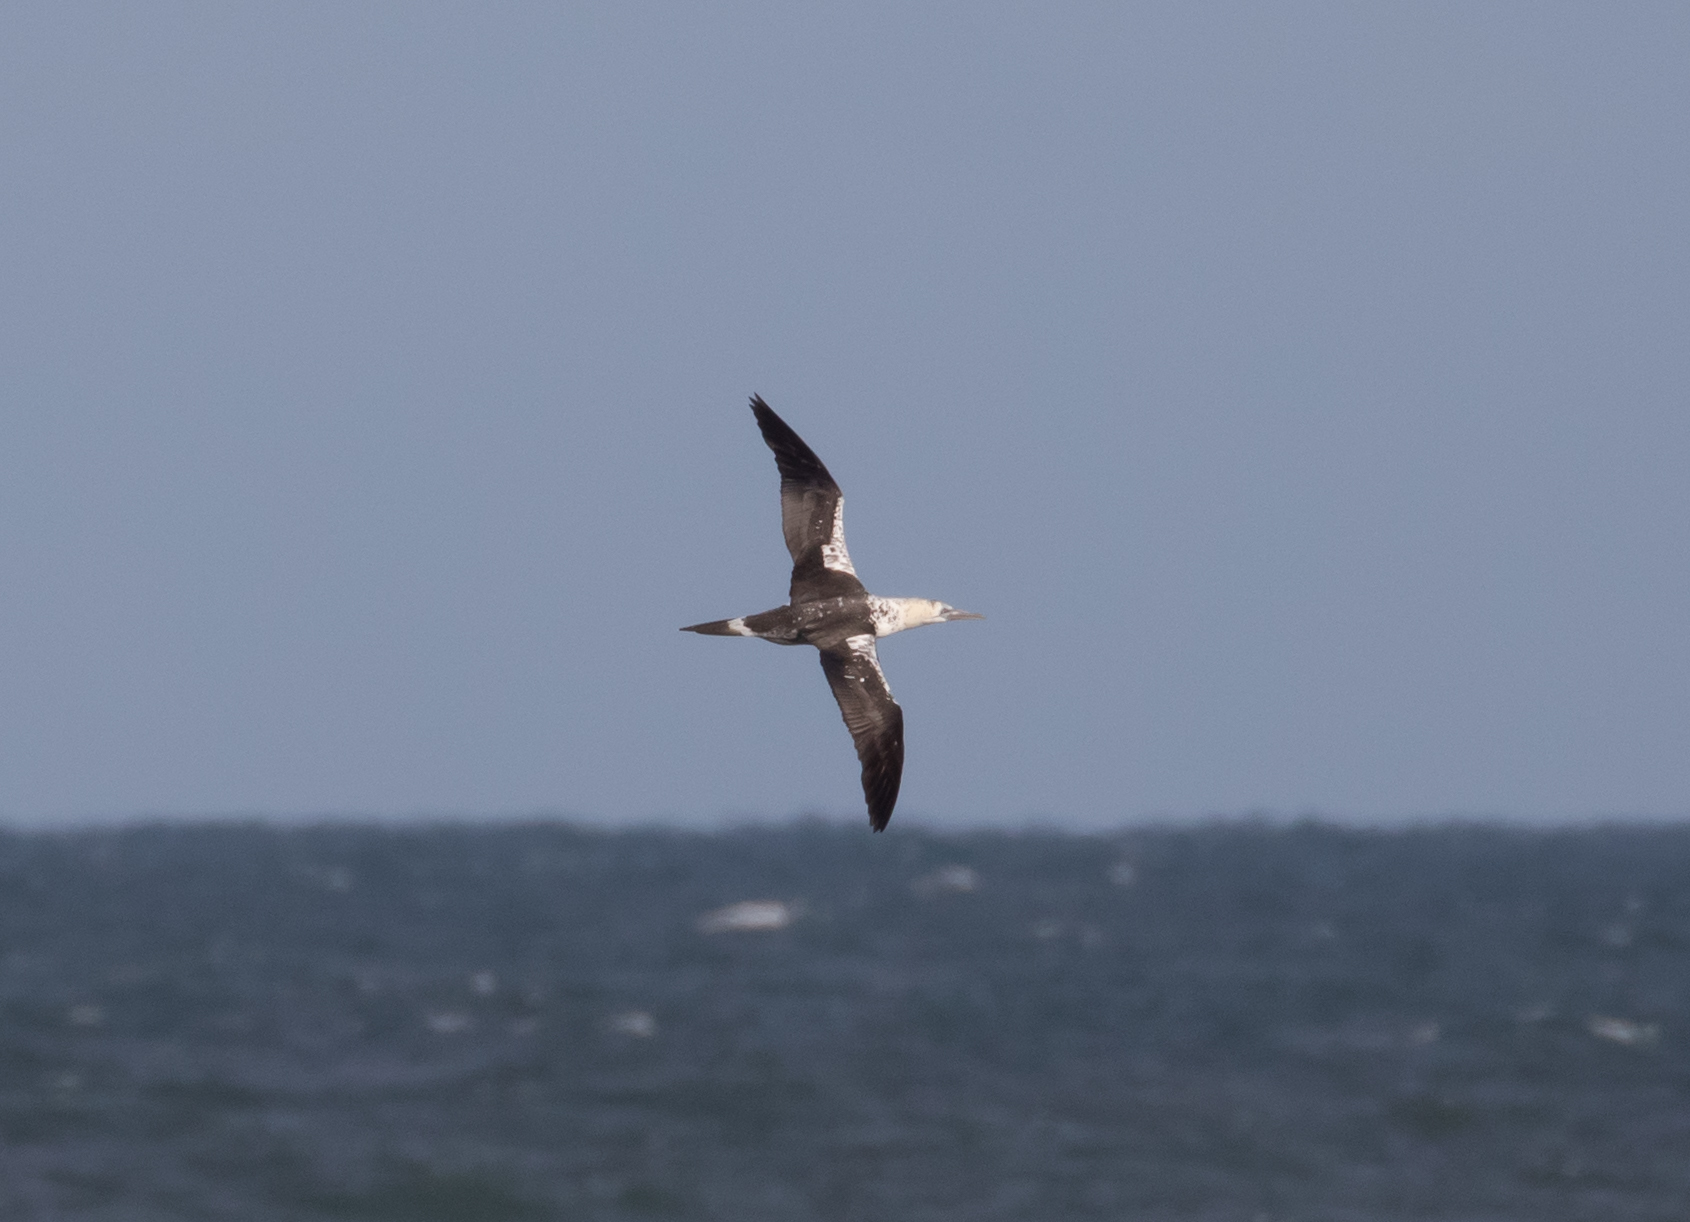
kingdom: Animalia
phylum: Chordata
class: Aves
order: Suliformes
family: Sulidae
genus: Morus
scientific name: Morus bassanus
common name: Northern gannet
